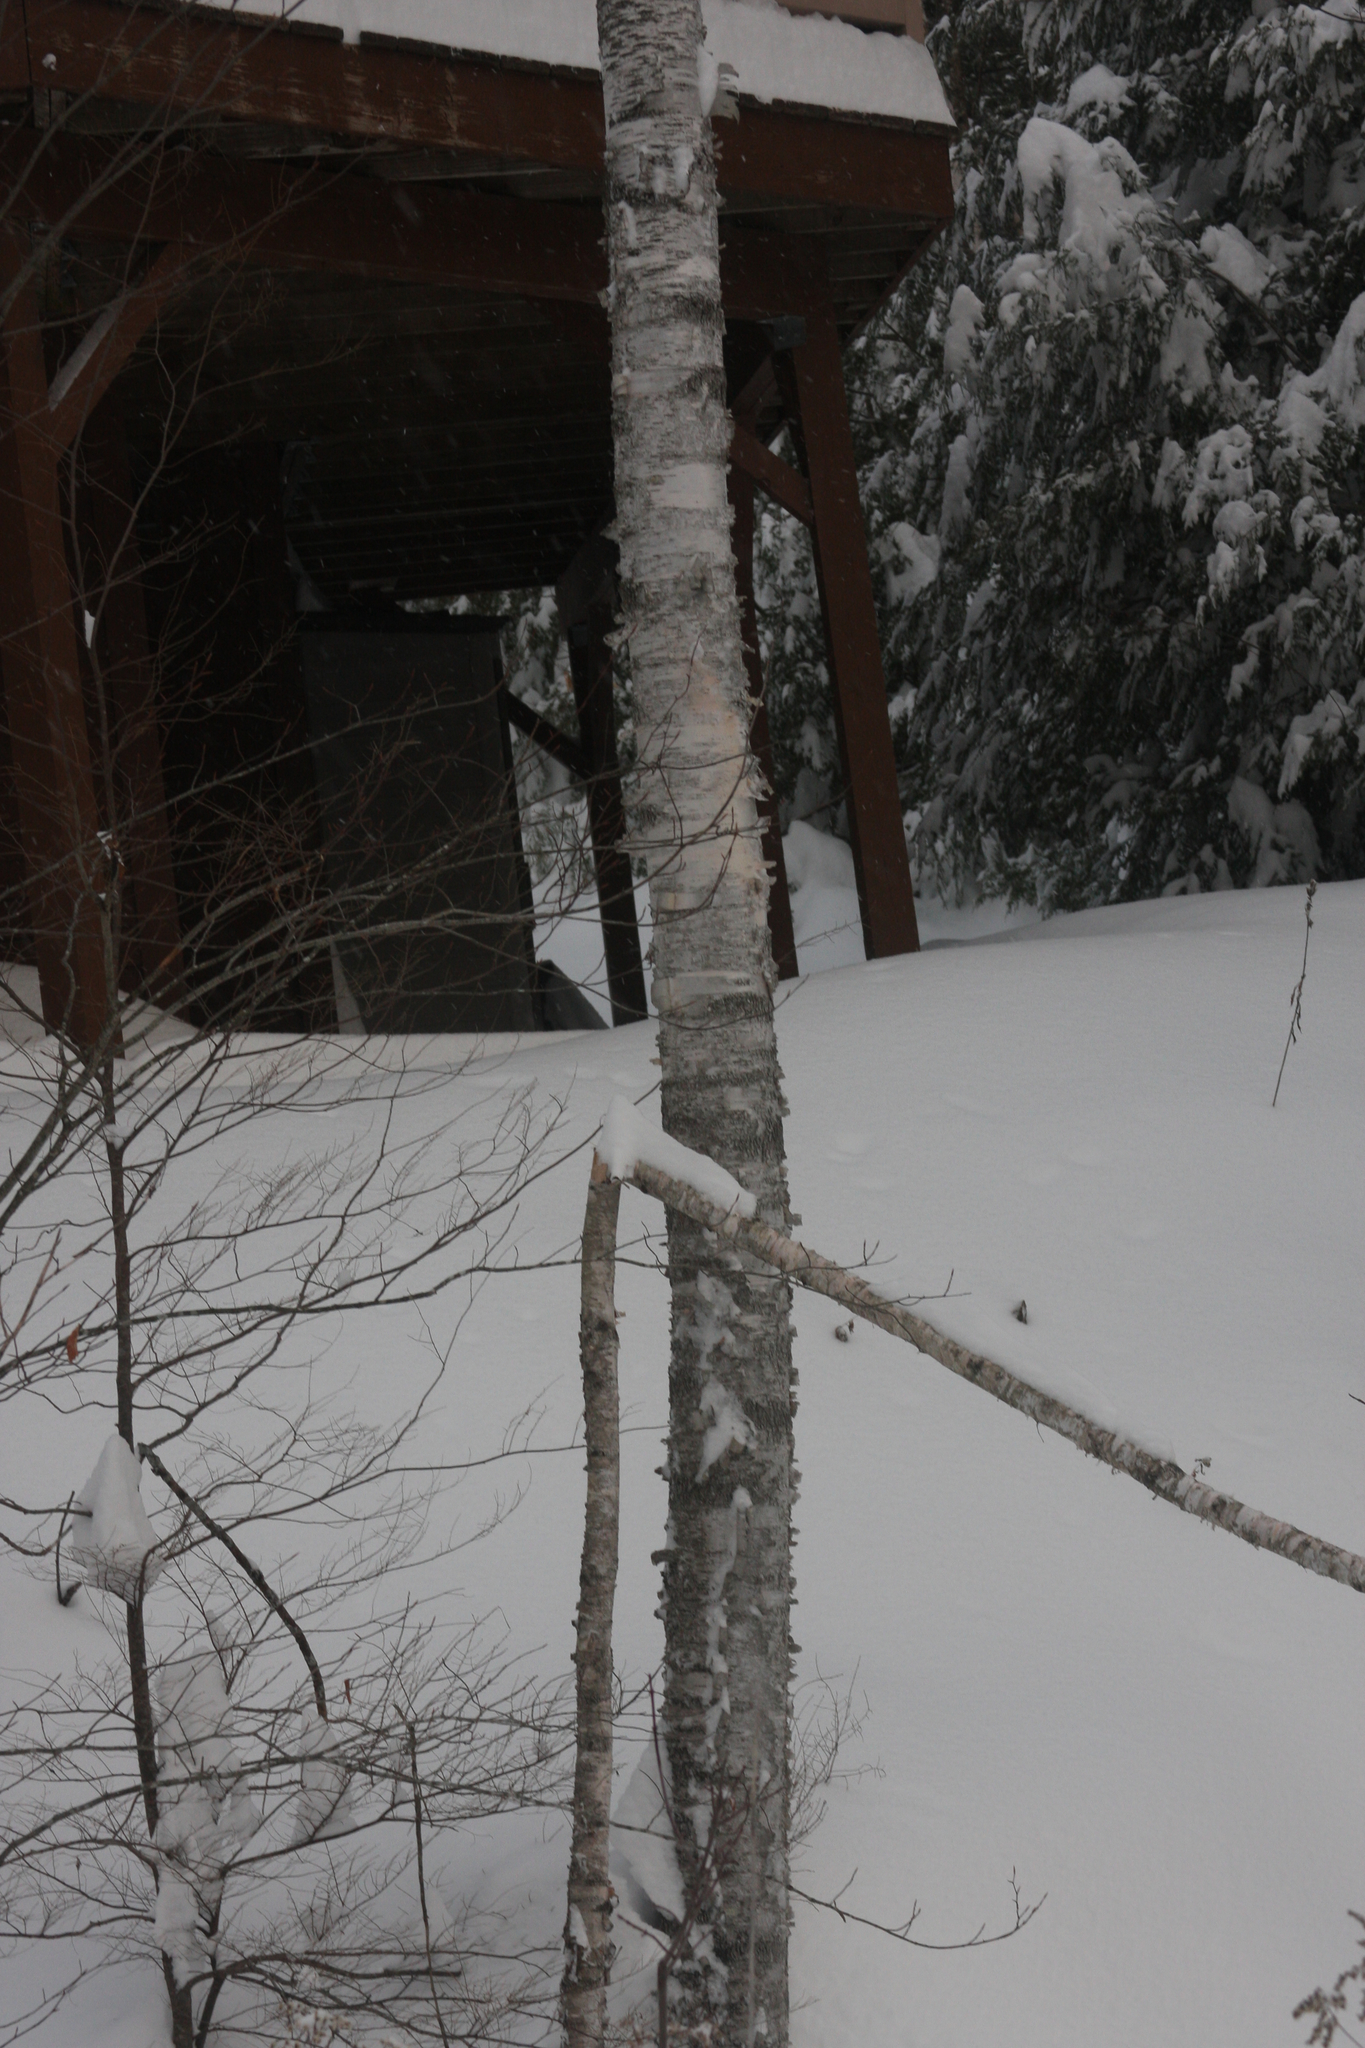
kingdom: Plantae
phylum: Tracheophyta
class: Magnoliopsida
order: Fagales
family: Betulaceae
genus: Betula
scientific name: Betula papyrifera
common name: Paper birch
